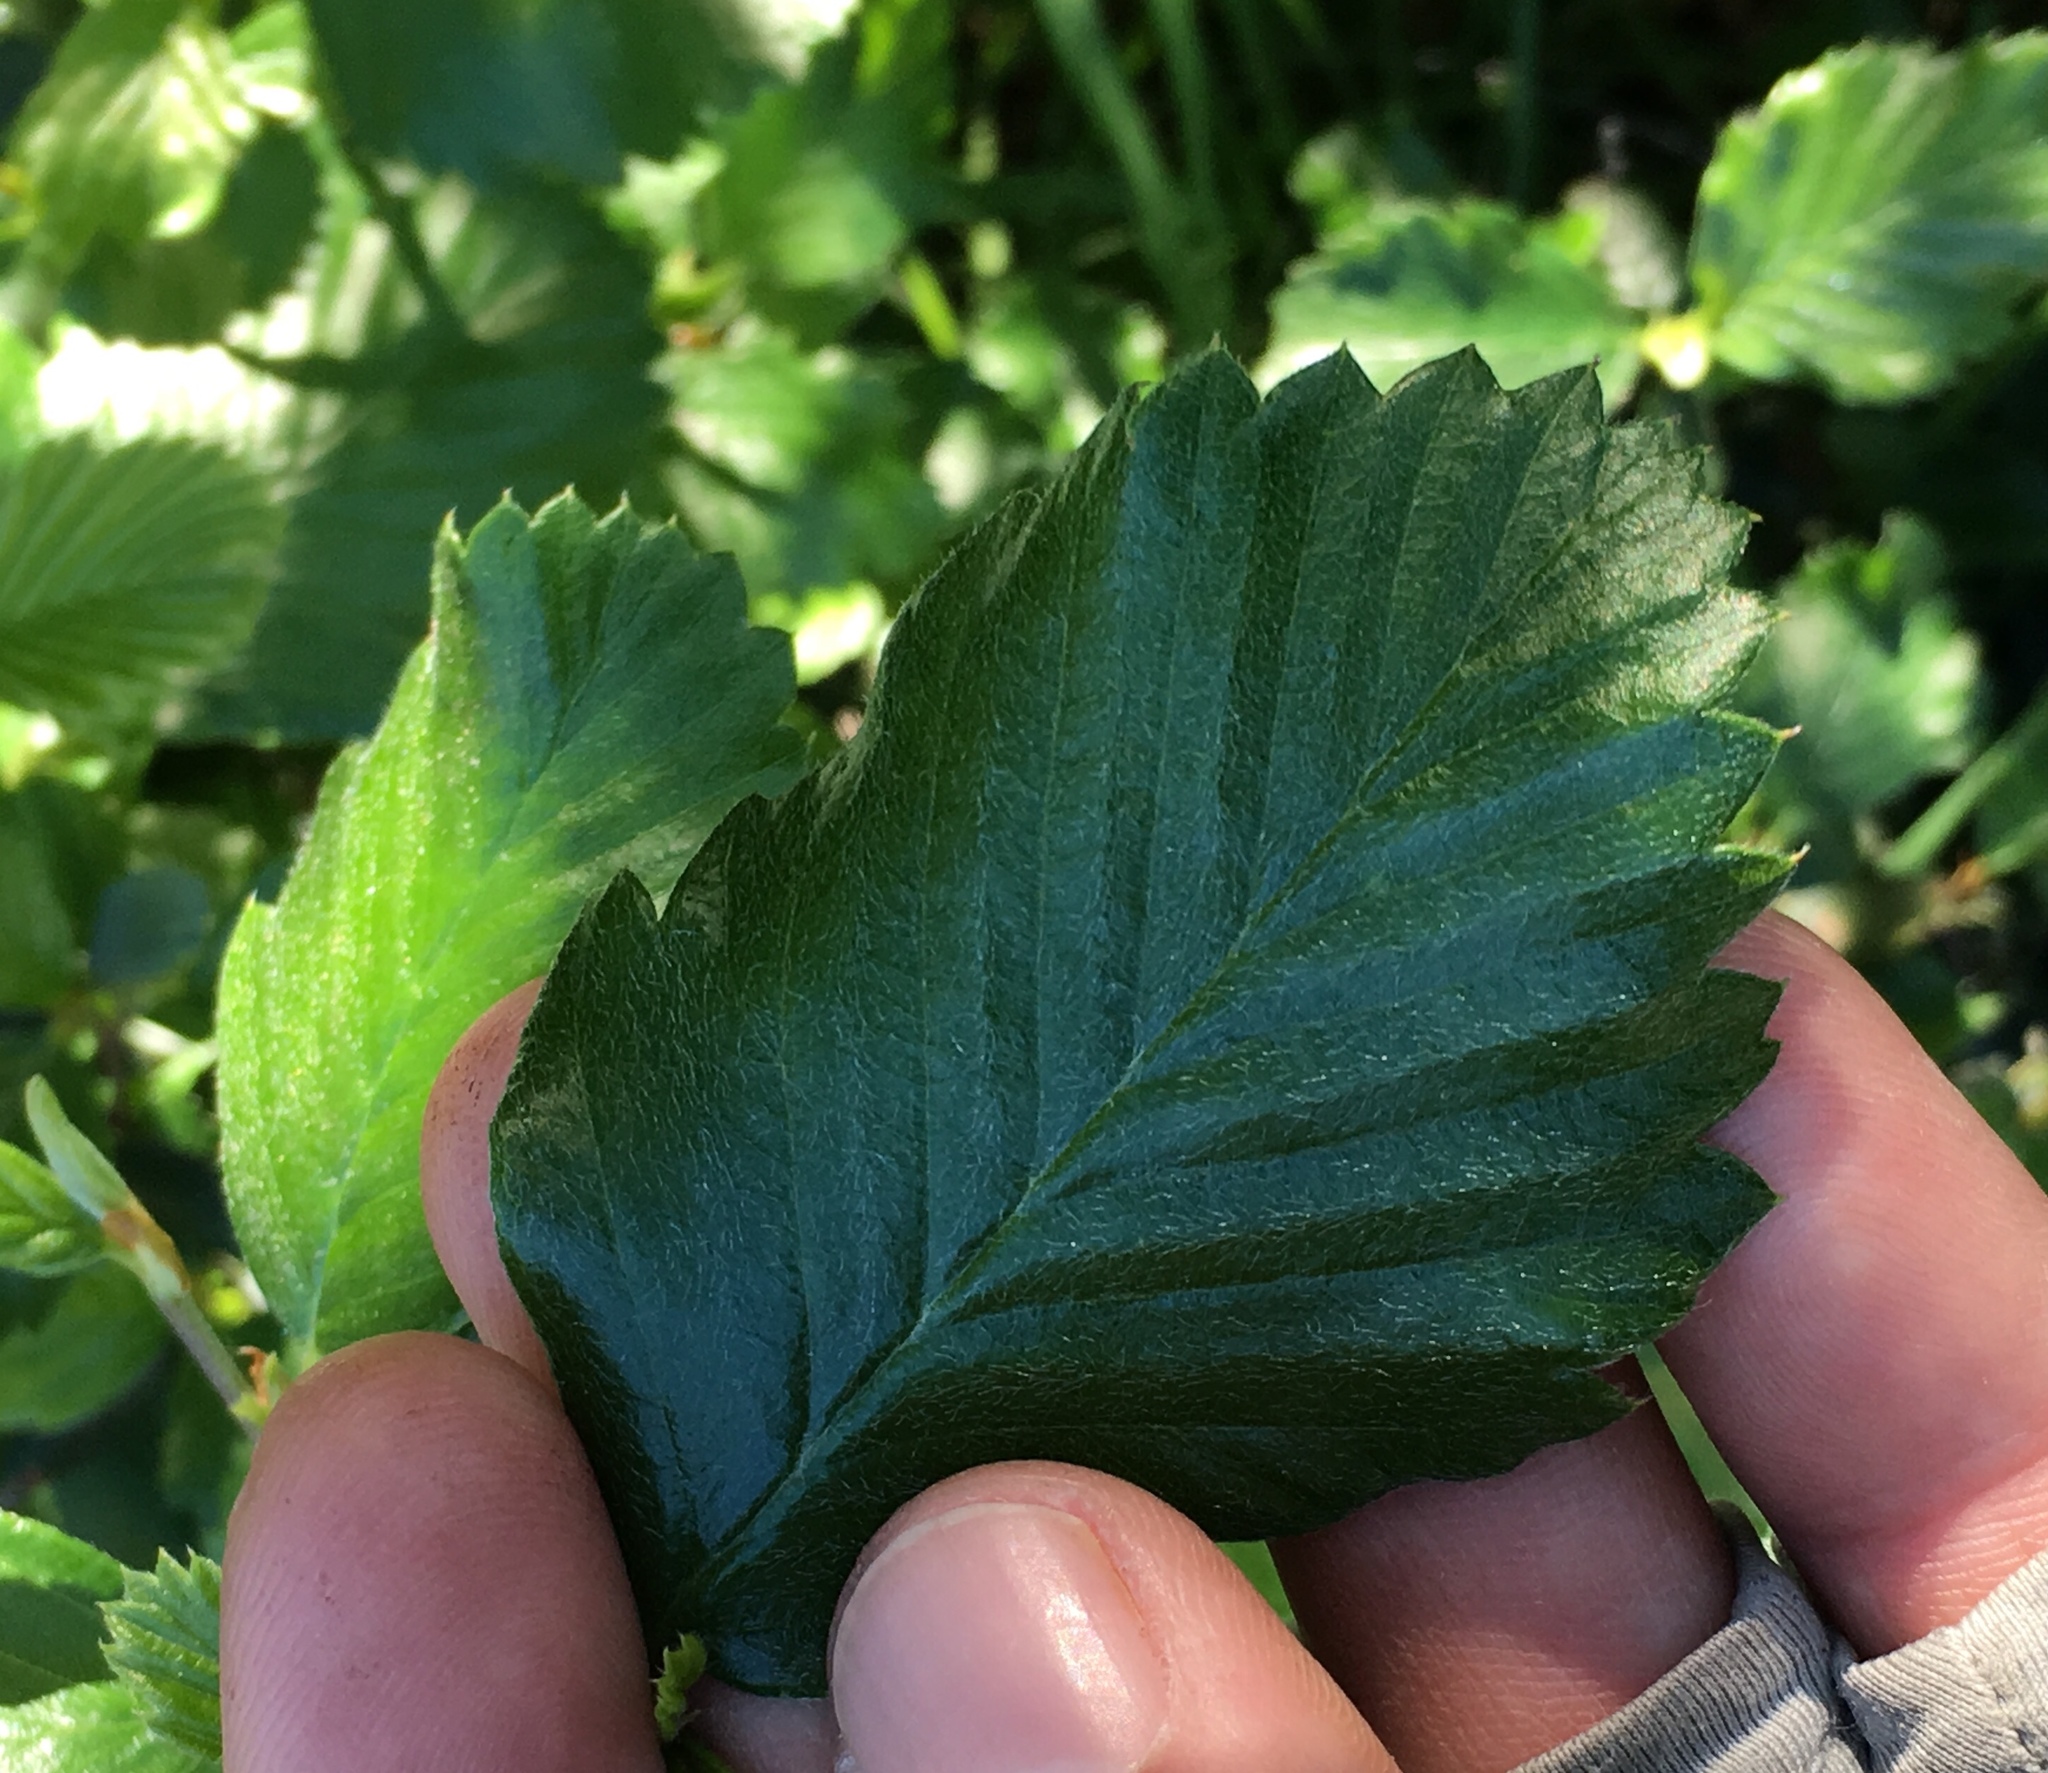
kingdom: Plantae
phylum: Tracheophyta
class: Magnoliopsida
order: Rosales
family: Rosaceae
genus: Cercocarpus
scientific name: Cercocarpus betuloides
